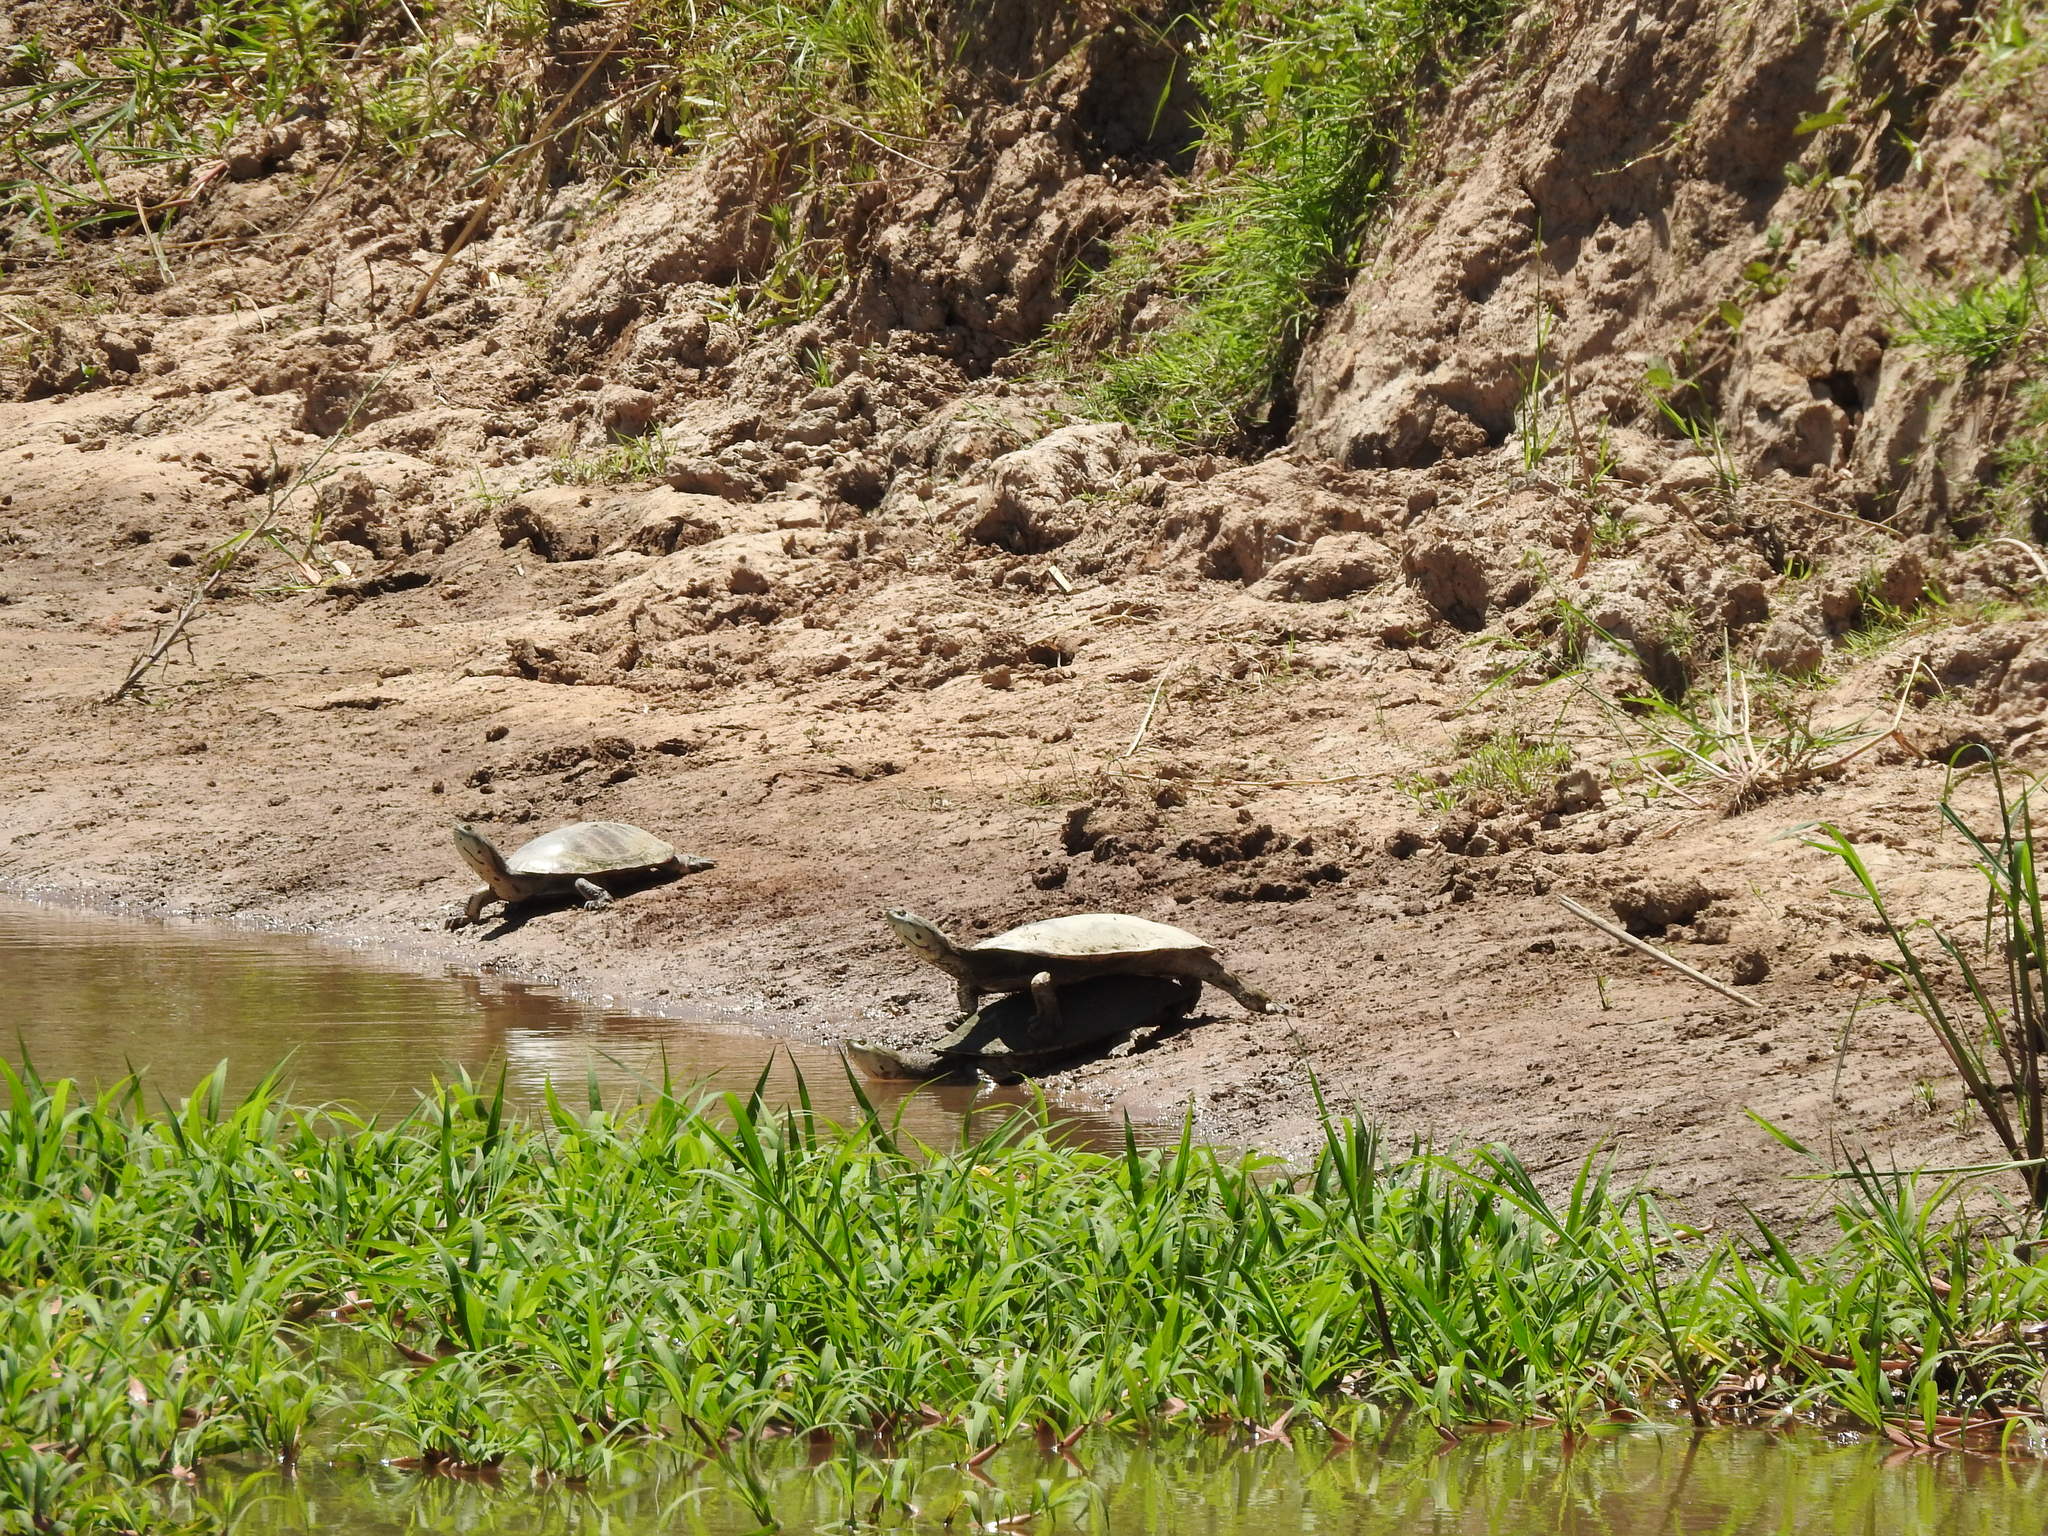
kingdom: Animalia
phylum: Chordata
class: Testudines
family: Chelidae
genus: Phrynops
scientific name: Phrynops hilarii
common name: Side-necked turtle of saint hillaire
